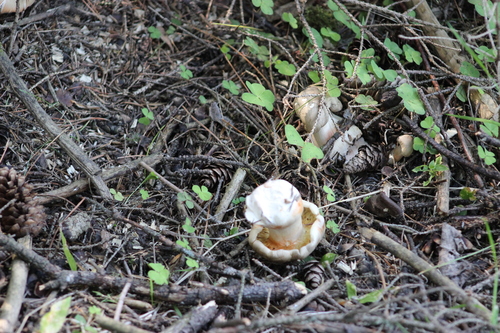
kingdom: Fungi
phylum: Basidiomycota
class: Agaricomycetes
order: Agaricales
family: Tricholomataceae
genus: Clitocybe
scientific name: Clitocybe nebularis
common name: Clouded agaric
